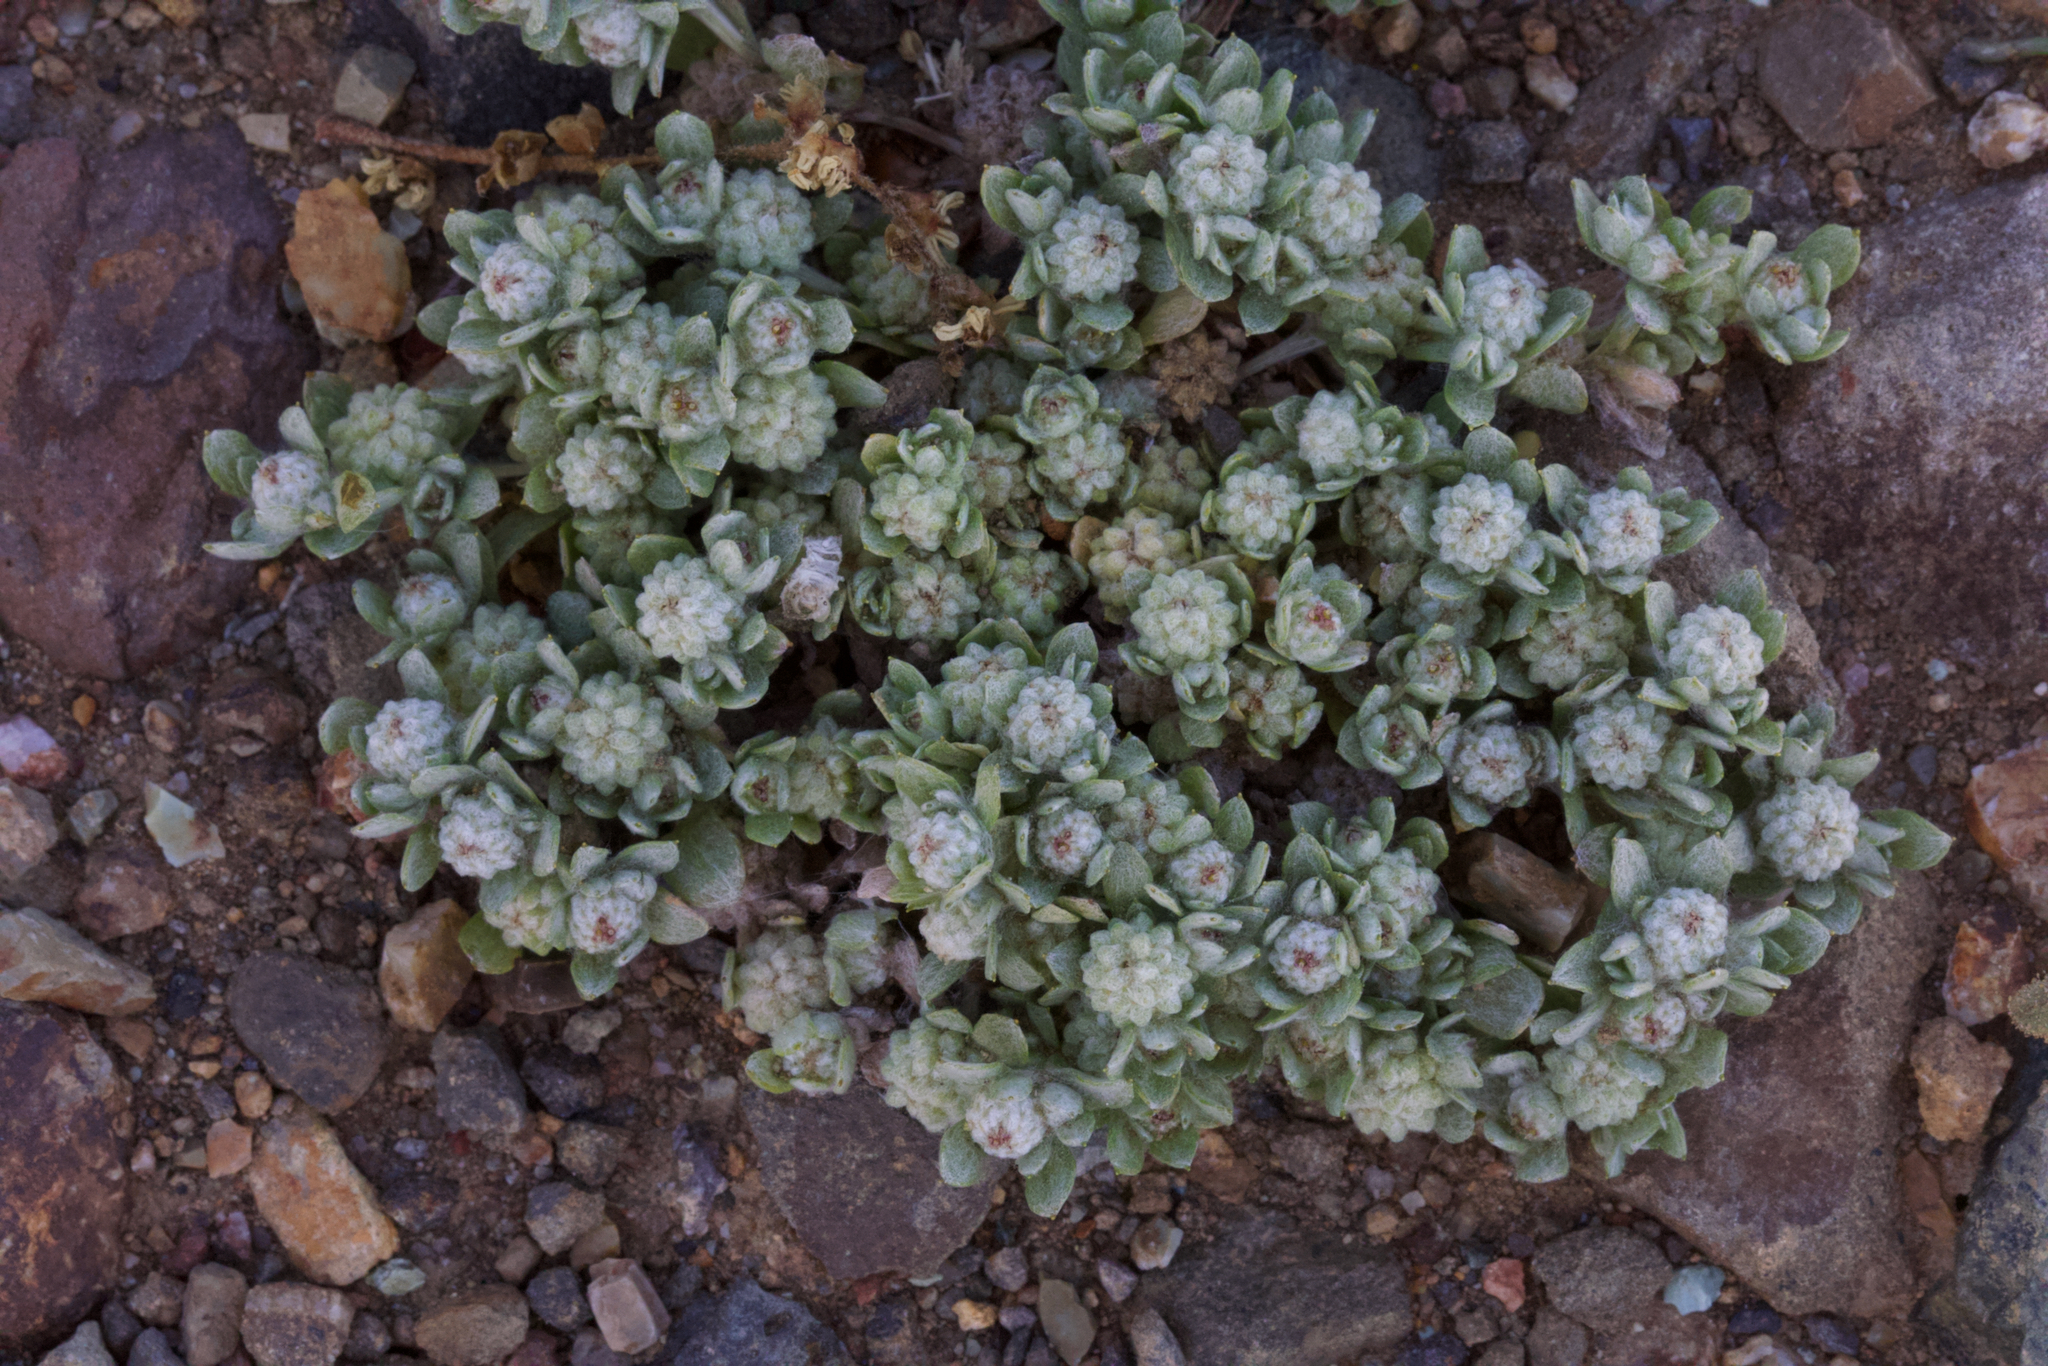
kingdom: Plantae
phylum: Tracheophyta
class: Magnoliopsida
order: Asterales
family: Asteraceae
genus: Psilocarphus
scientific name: Psilocarphus tenellus
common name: Slender woolly-marbles
